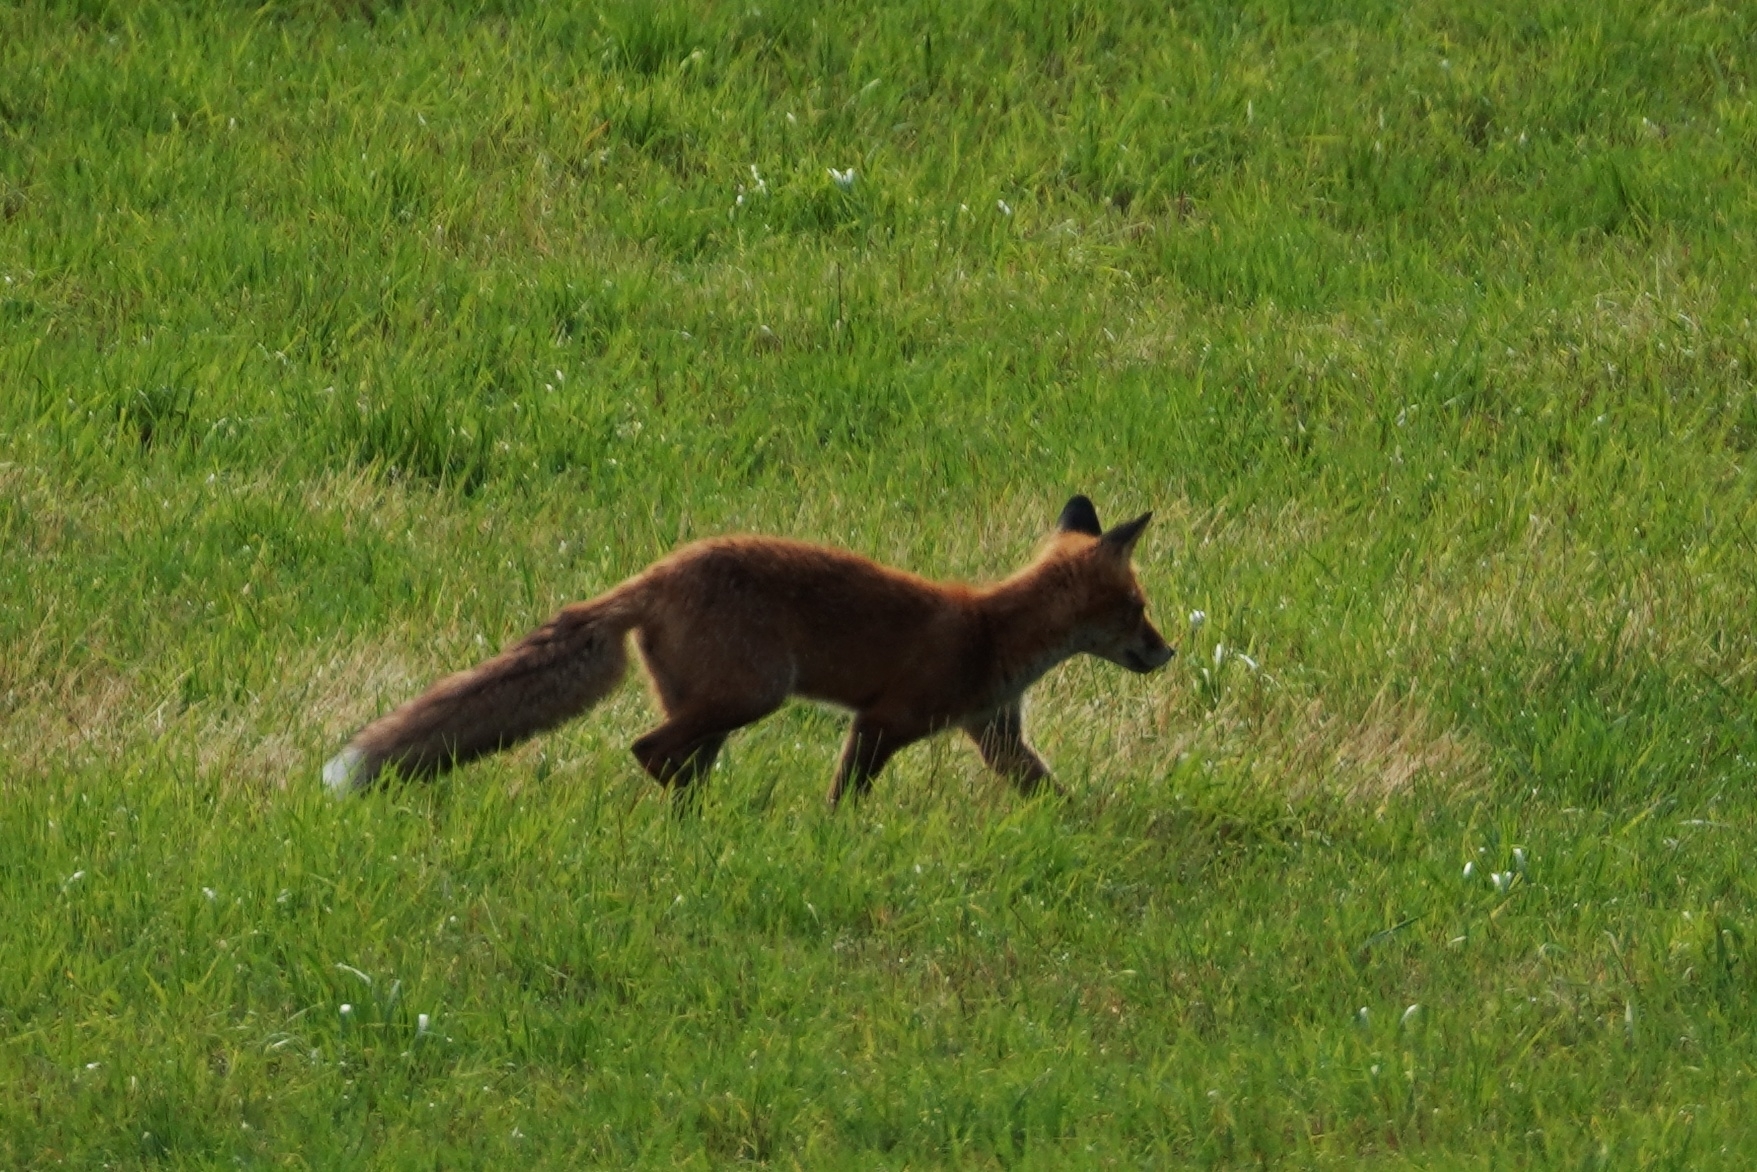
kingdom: Animalia
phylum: Chordata
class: Mammalia
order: Carnivora
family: Canidae
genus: Vulpes
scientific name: Vulpes vulpes
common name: Red fox
